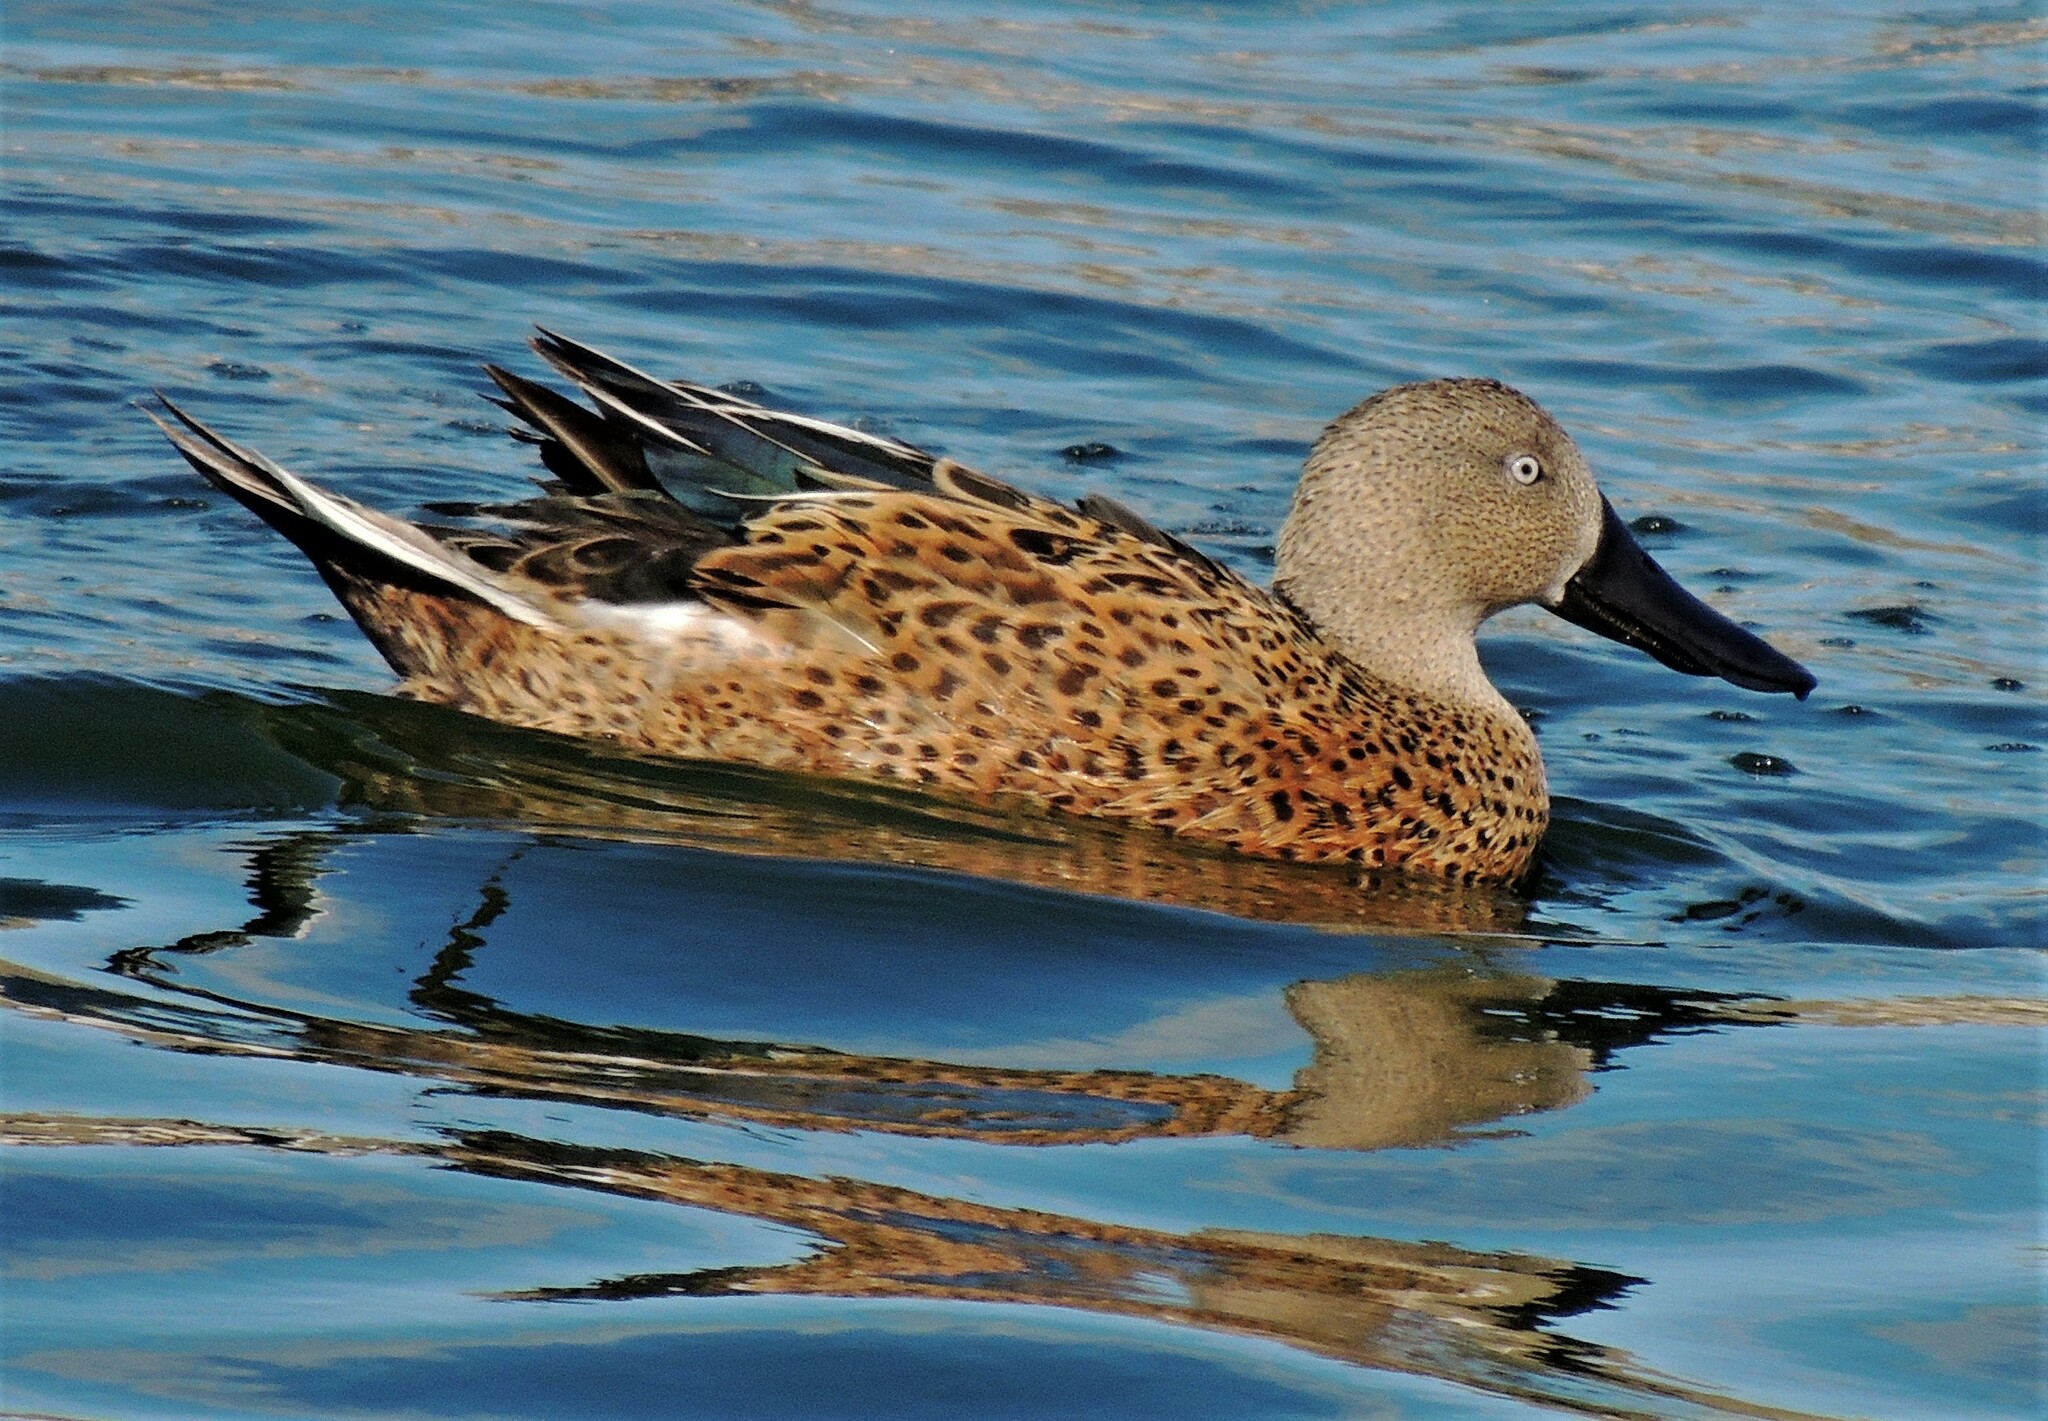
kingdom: Animalia
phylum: Chordata
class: Aves
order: Anseriformes
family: Anatidae
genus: Spatula
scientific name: Spatula platalea
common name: Red shoveler
